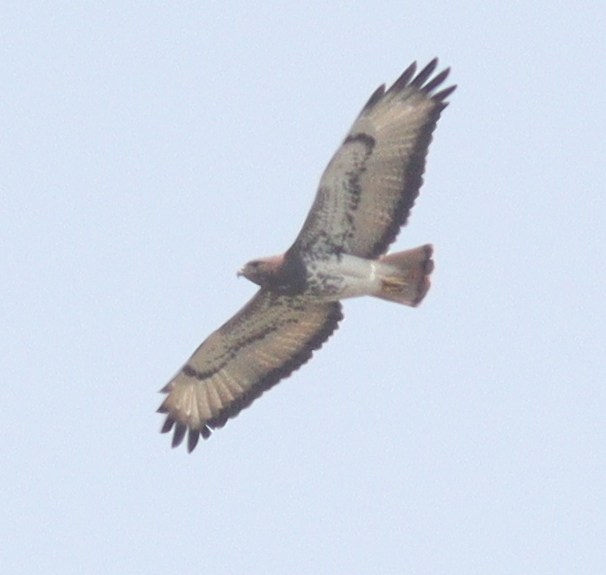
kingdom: Animalia
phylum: Chordata
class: Aves
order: Accipitriformes
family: Accipitridae
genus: Buteo
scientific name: Buteo auguralis
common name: Red-necked buzzard
